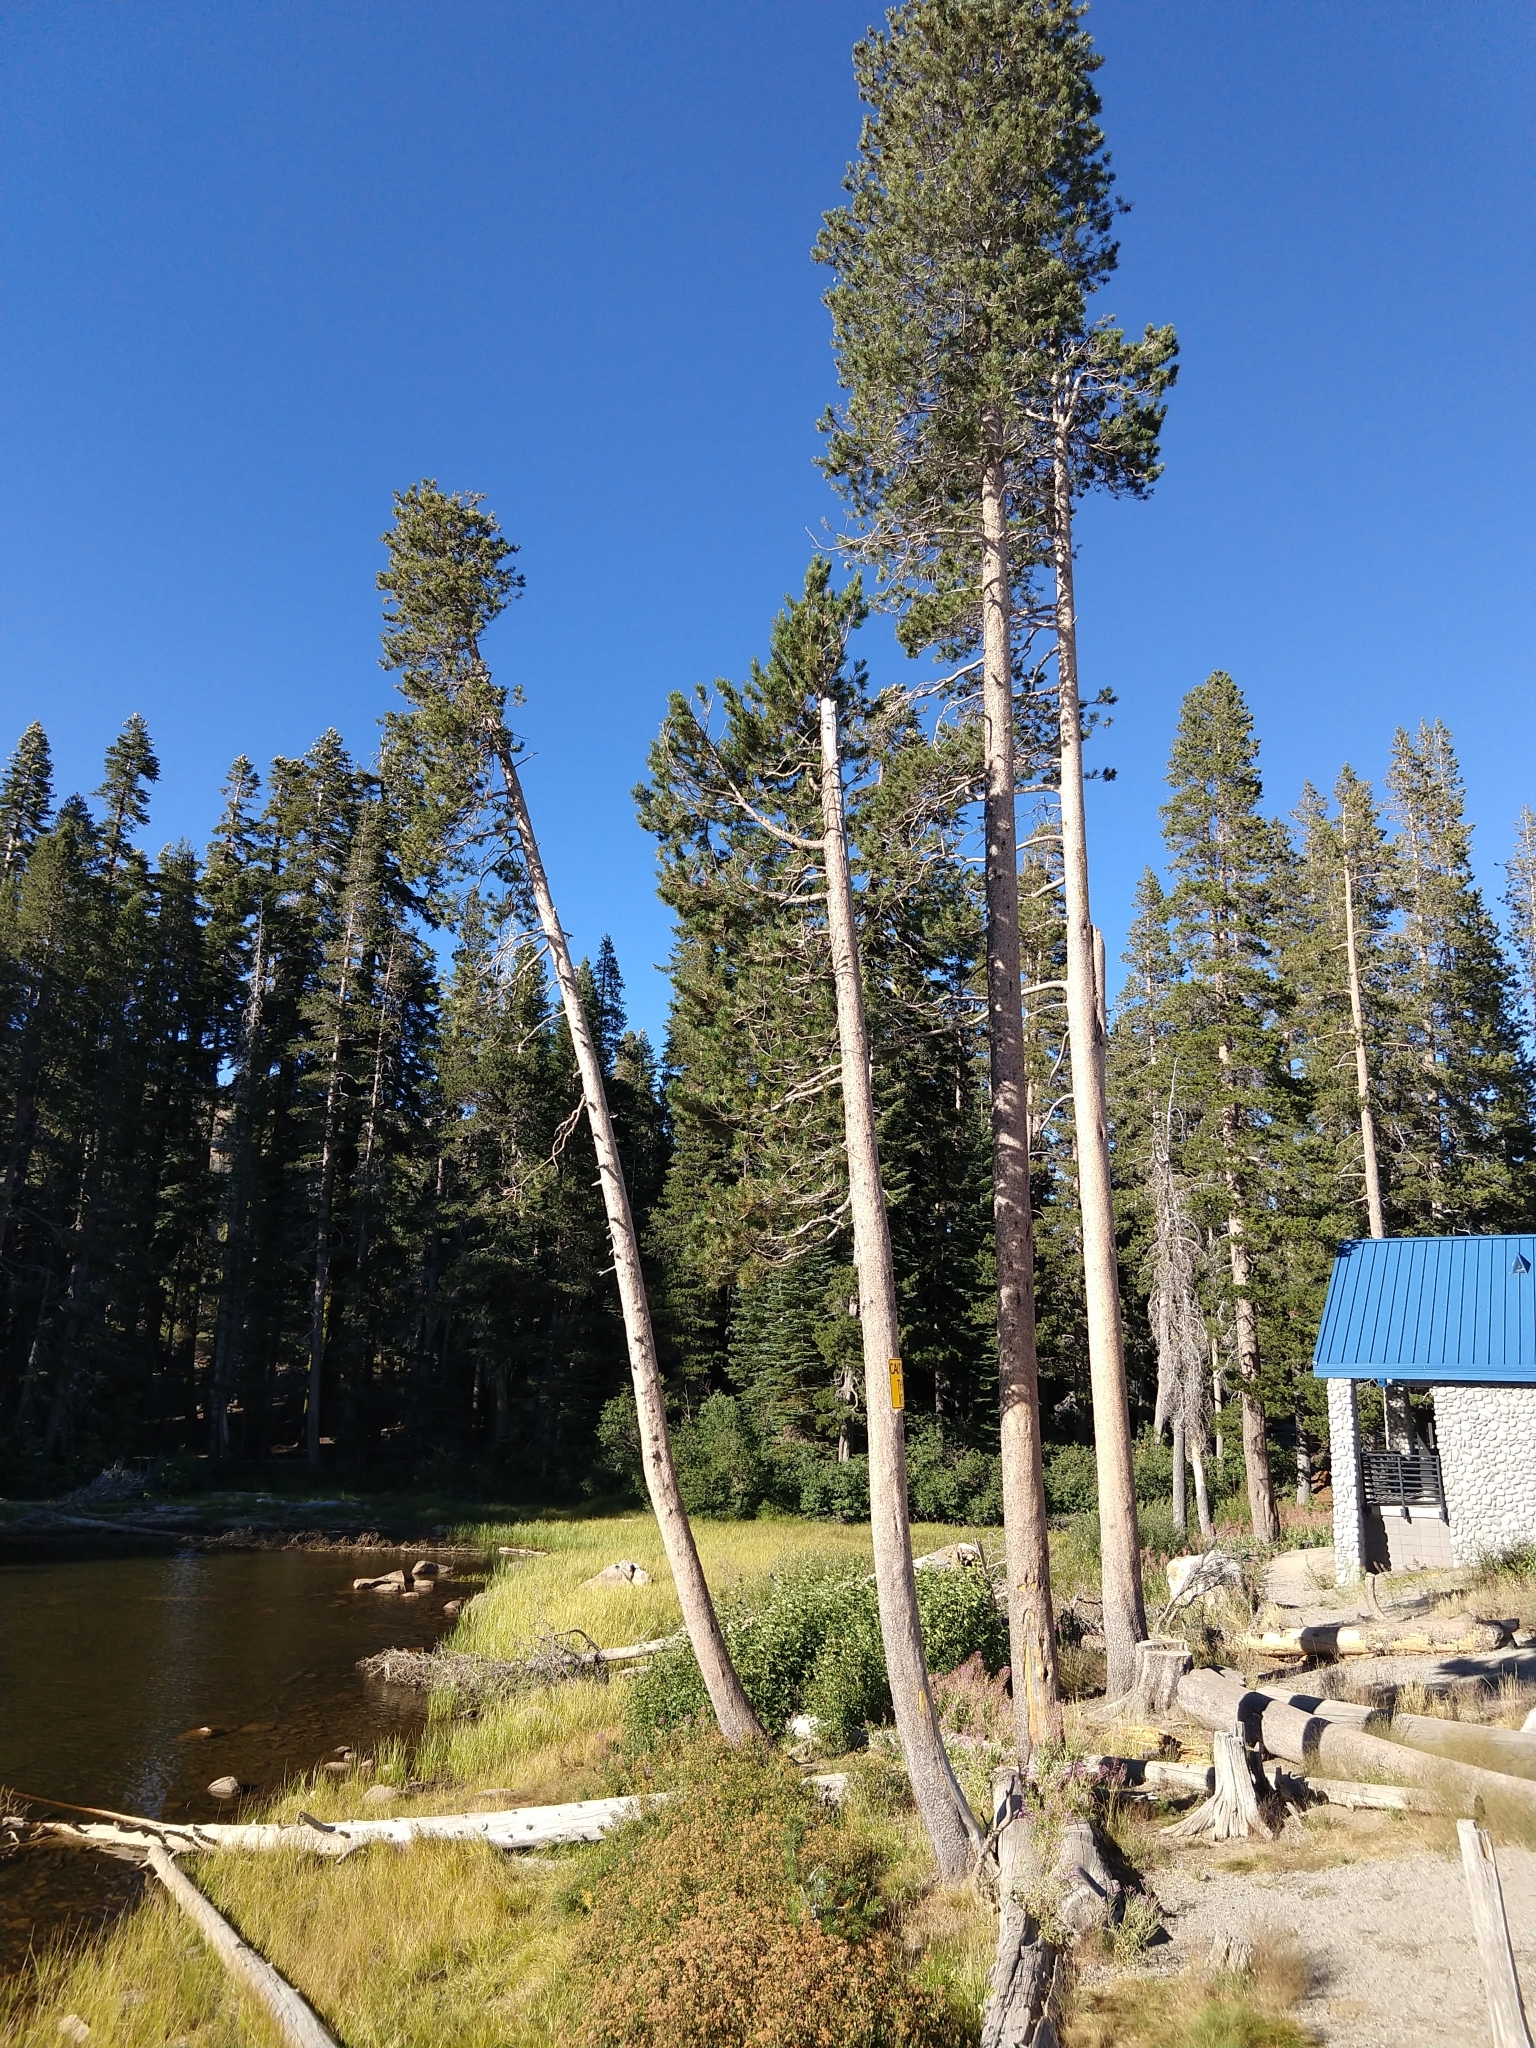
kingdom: Plantae
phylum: Tracheophyta
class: Pinopsida
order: Pinales
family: Pinaceae
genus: Pinus
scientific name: Pinus contorta
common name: Lodgepole pine
